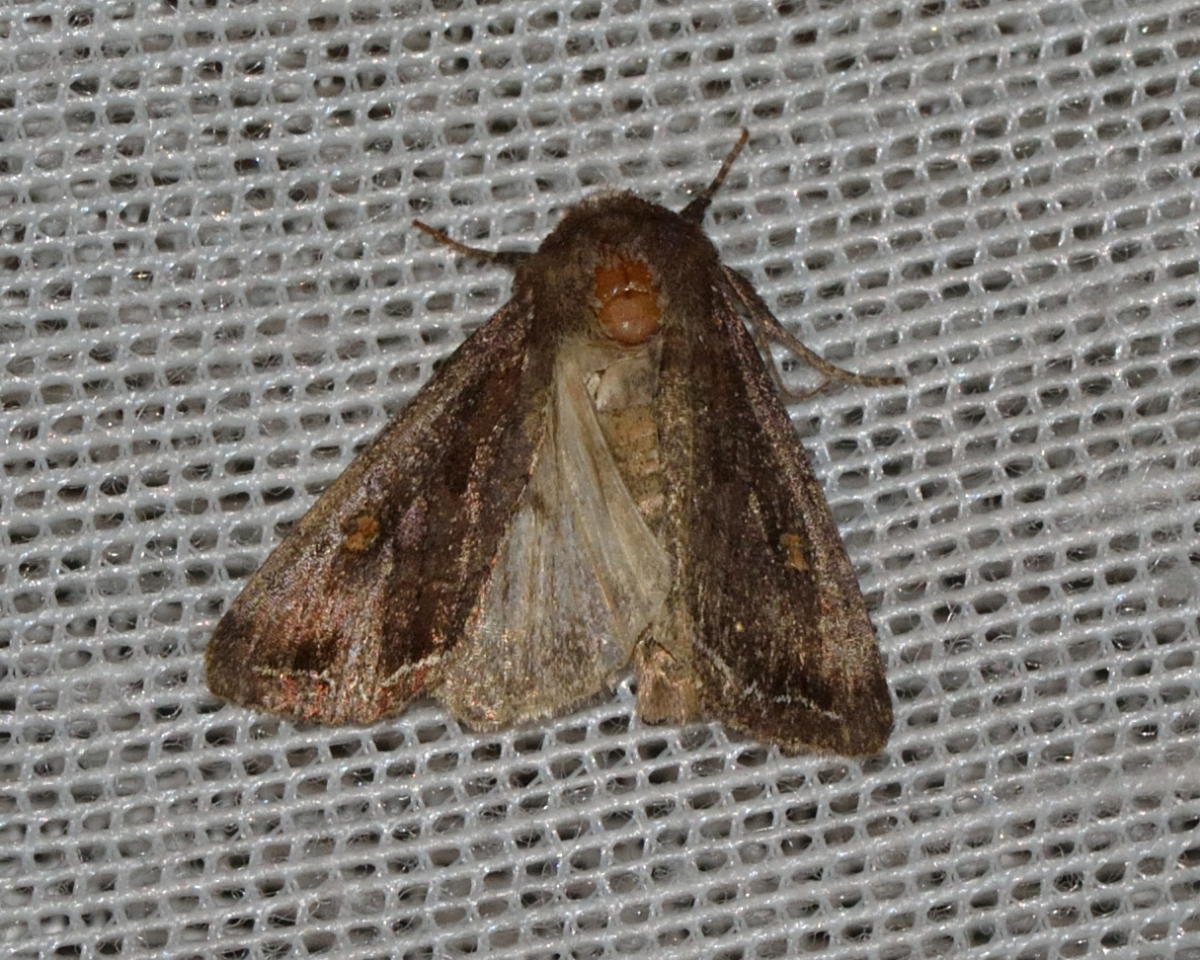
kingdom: Animalia
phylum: Arthropoda
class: Insecta
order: Lepidoptera
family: Noctuidae
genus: Lacanobia
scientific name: Lacanobia oleracea
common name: Bright-line brown-eye
